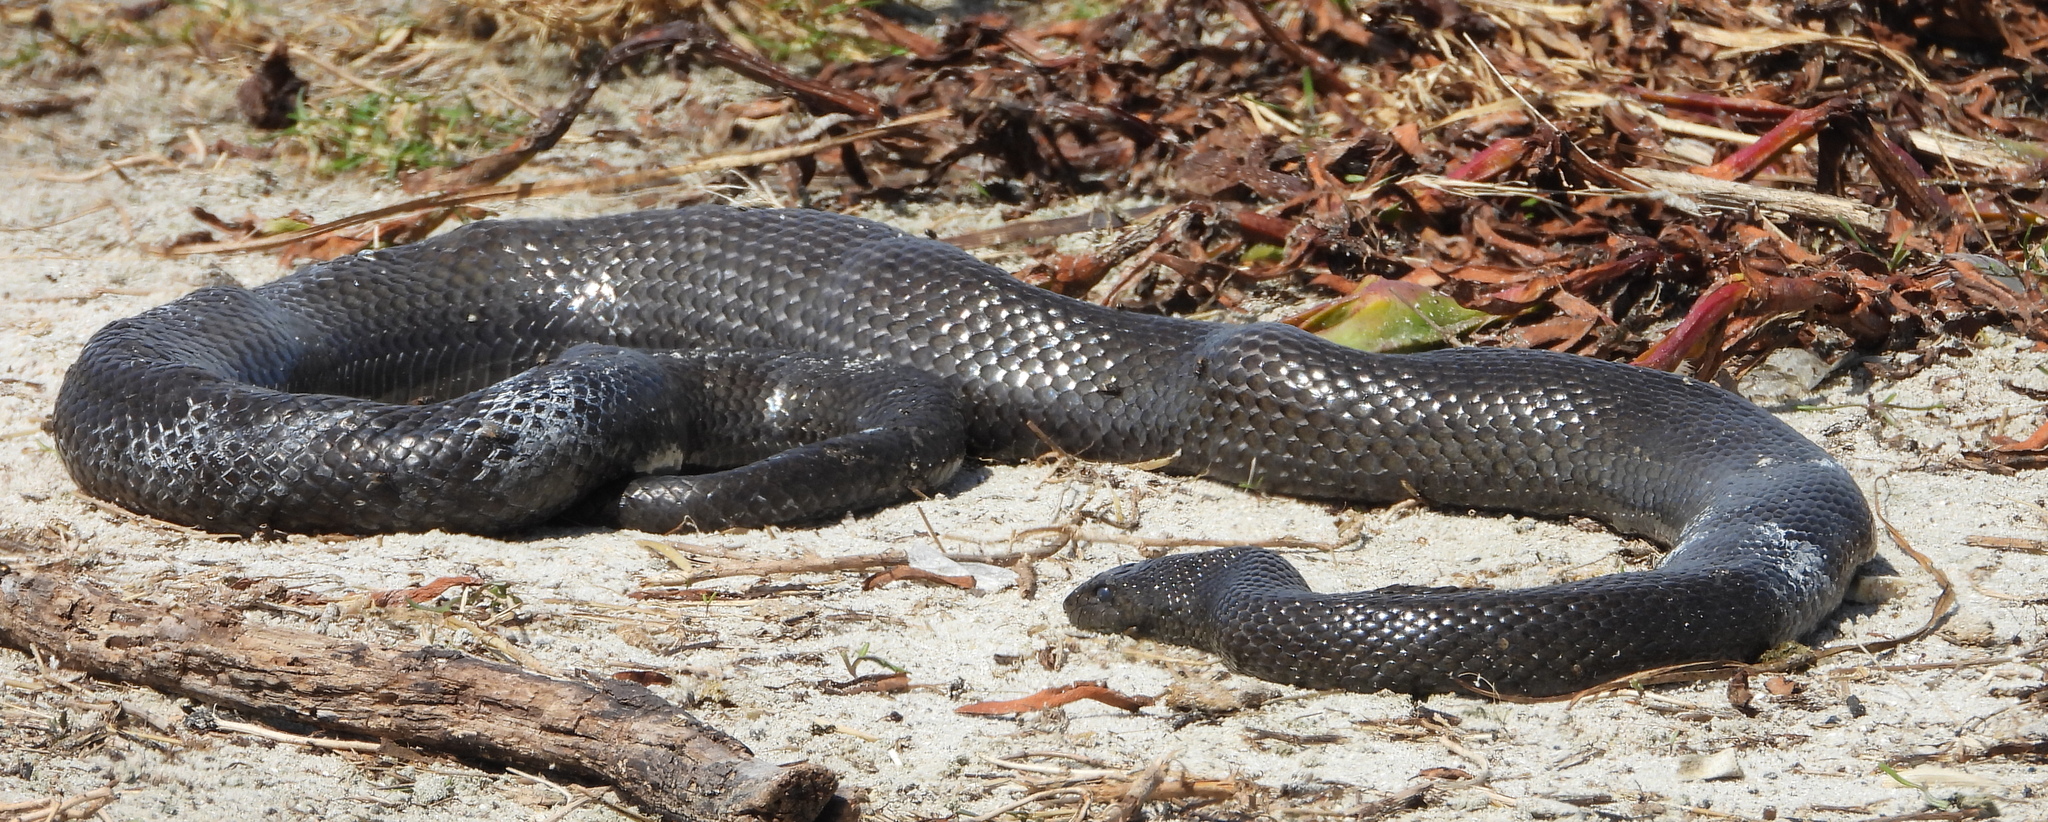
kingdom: Animalia
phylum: Chordata
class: Squamata
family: Pseudaspididae
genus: Pseudaspis
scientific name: Pseudaspis cana
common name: Mole snake
